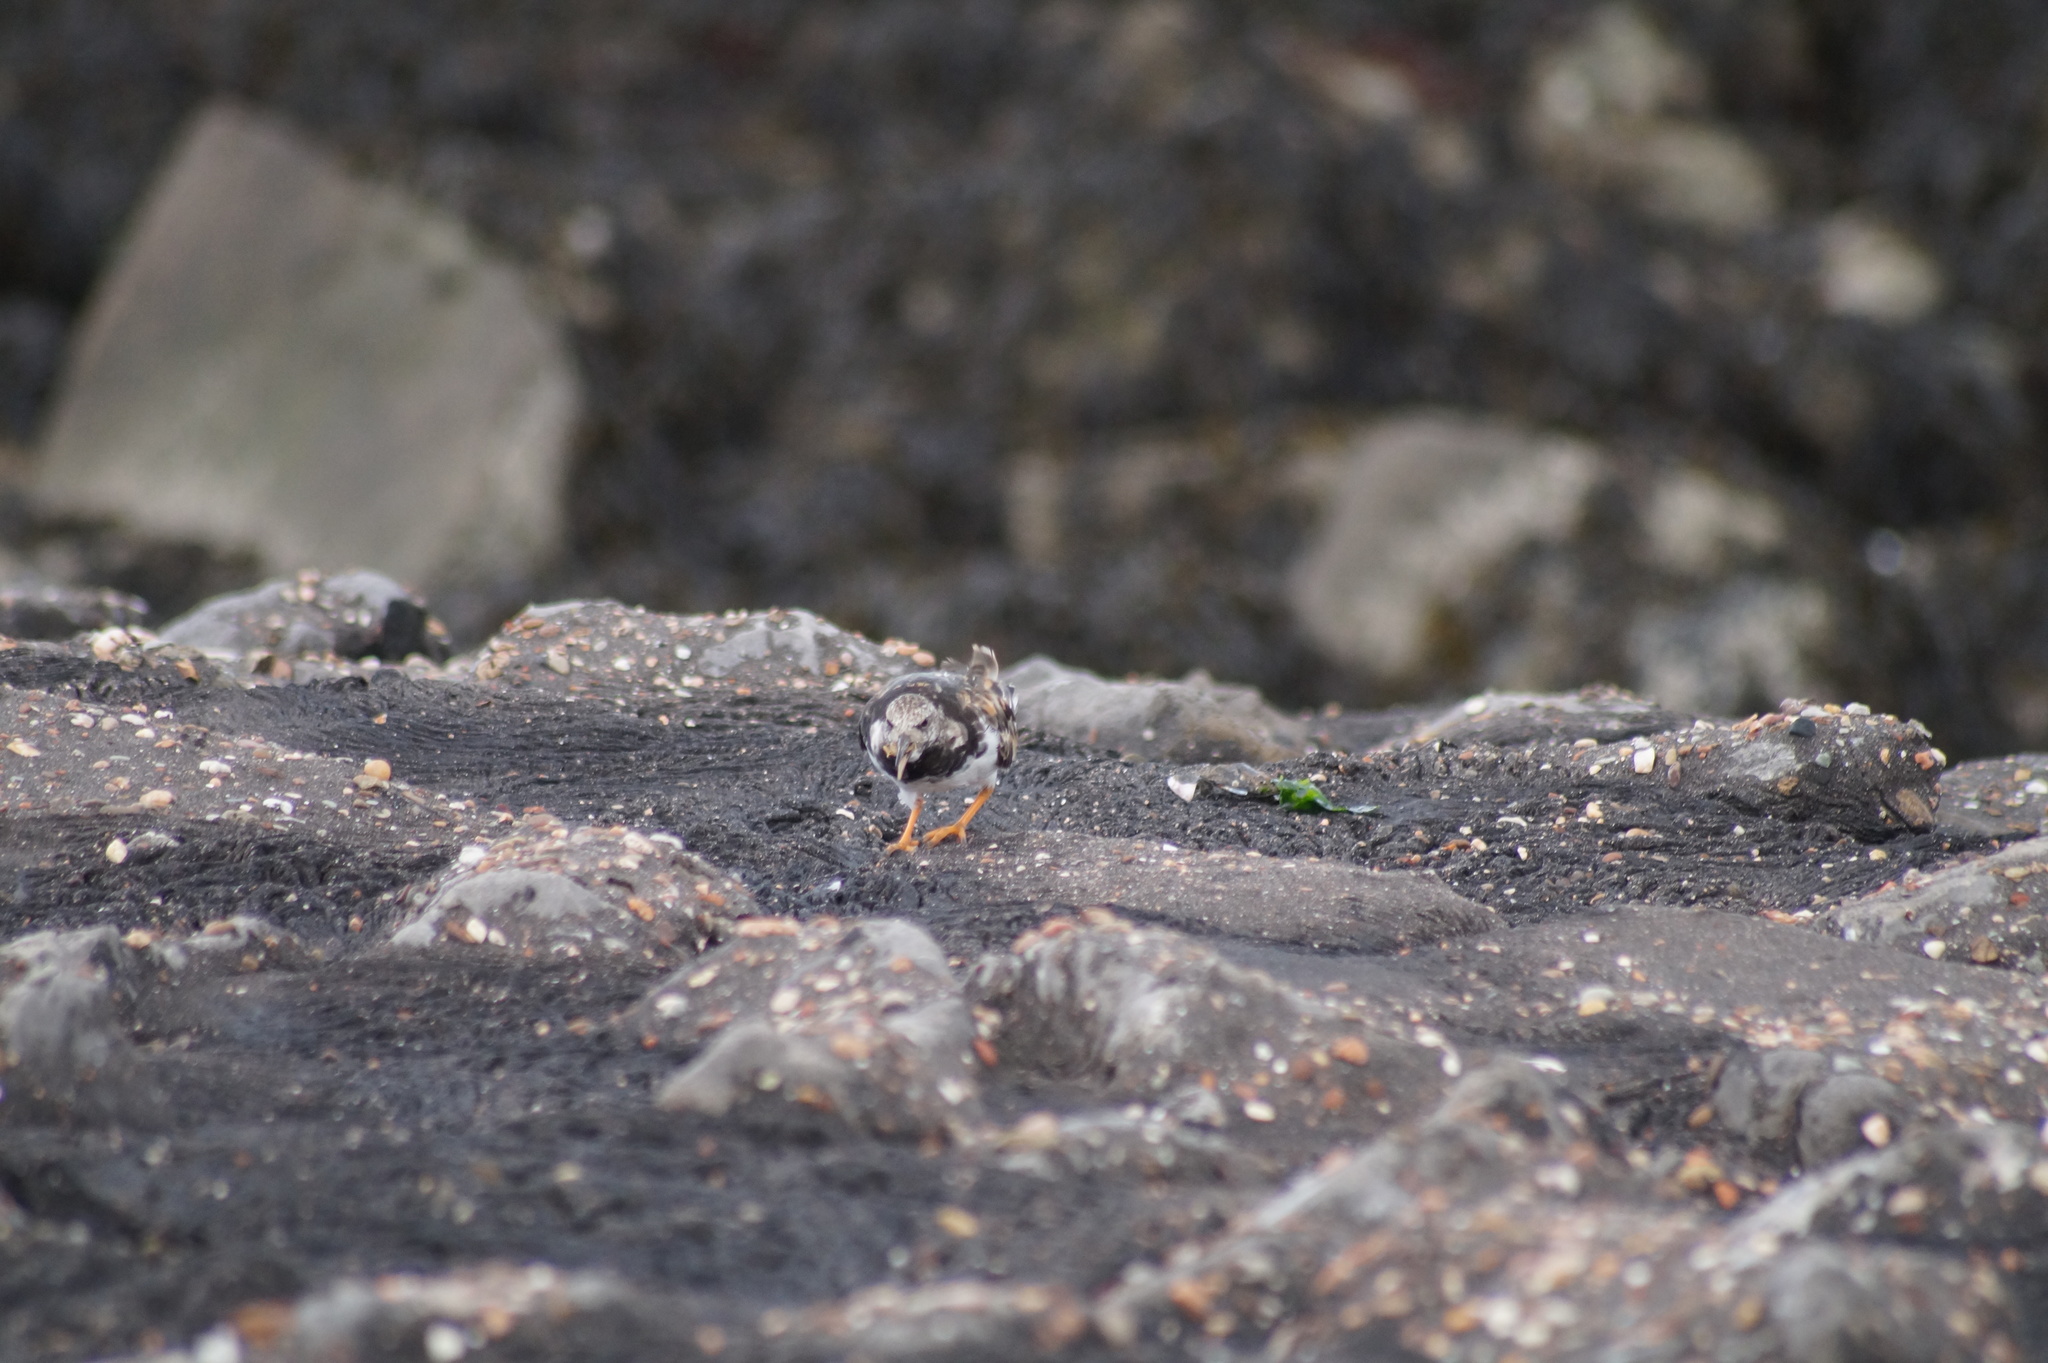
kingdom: Animalia
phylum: Chordata
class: Aves
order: Charadriiformes
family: Scolopacidae
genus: Arenaria
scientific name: Arenaria interpres
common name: Ruddy turnstone
